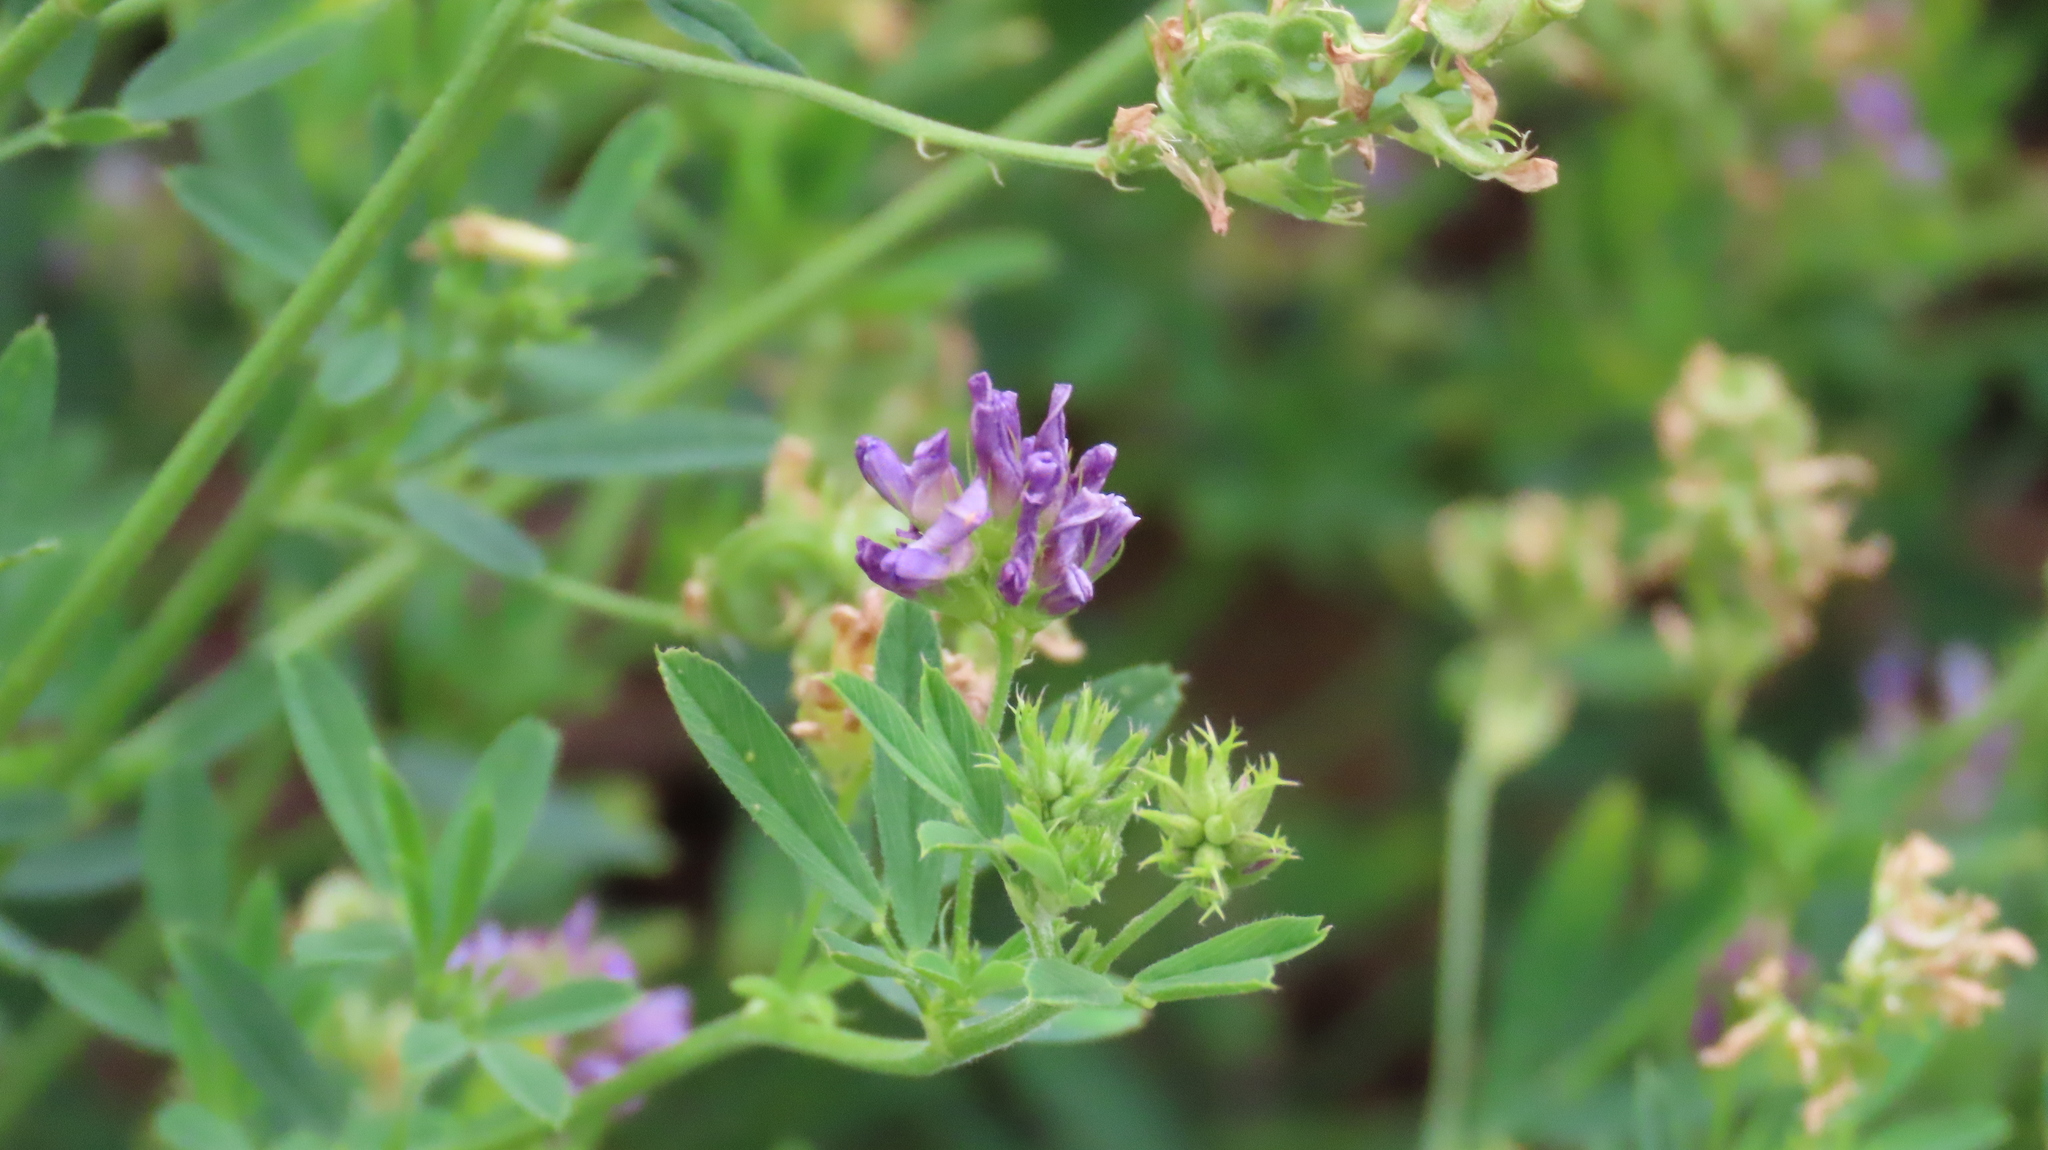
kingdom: Plantae
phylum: Tracheophyta
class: Magnoliopsida
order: Fabales
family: Fabaceae
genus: Medicago
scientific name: Medicago sativa
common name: Alfalfa
